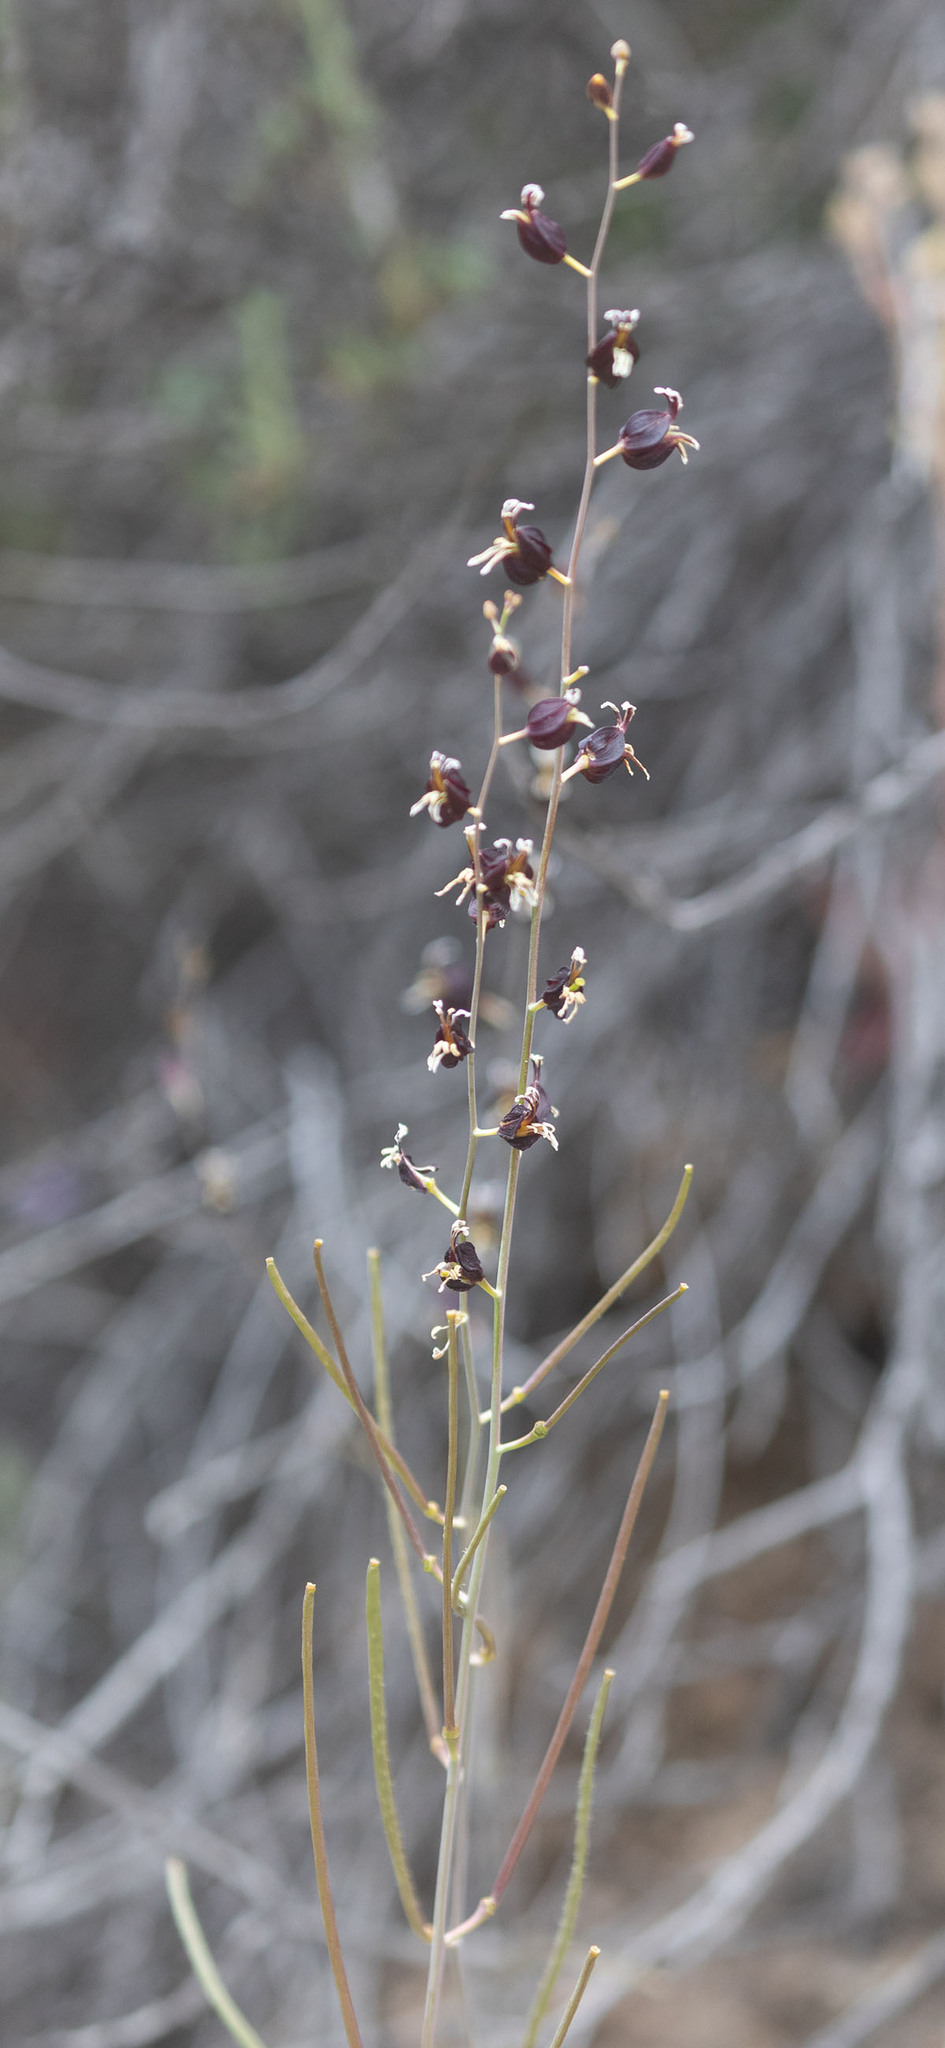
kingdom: Plantae
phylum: Tracheophyta
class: Magnoliopsida
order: Brassicales
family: Brassicaceae
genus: Streptanthus
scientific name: Streptanthus glandulosus
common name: Jewel-flower
